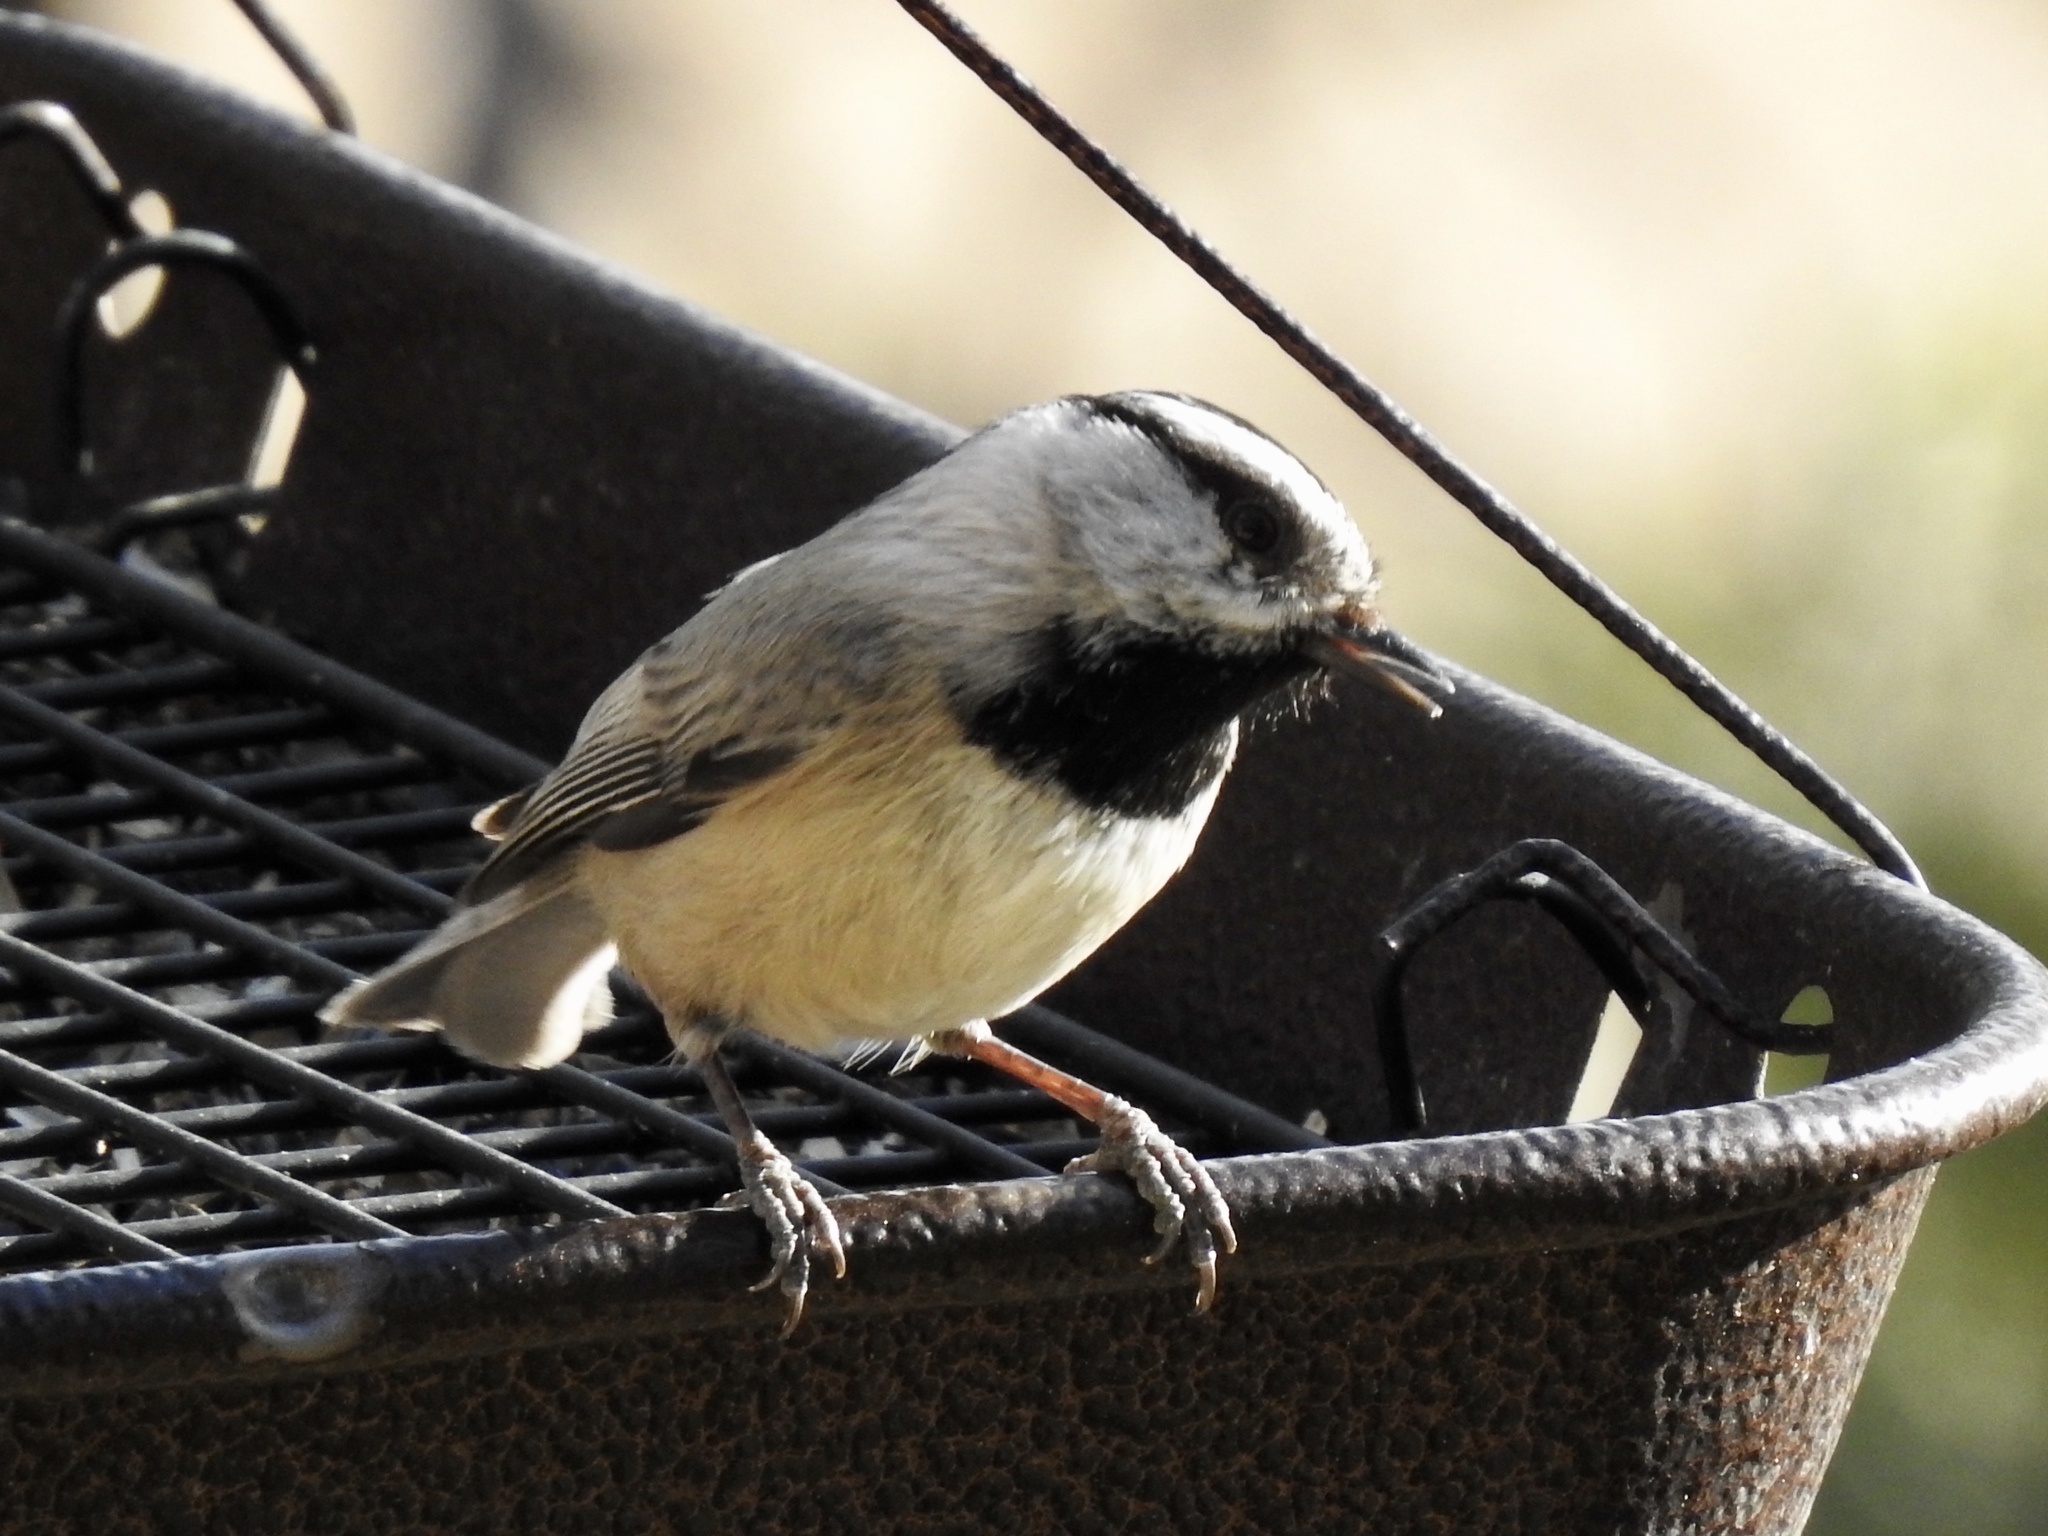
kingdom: Animalia
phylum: Chordata
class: Aves
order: Passeriformes
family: Paridae
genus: Poecile
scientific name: Poecile gambeli
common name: Mountain chickadee
